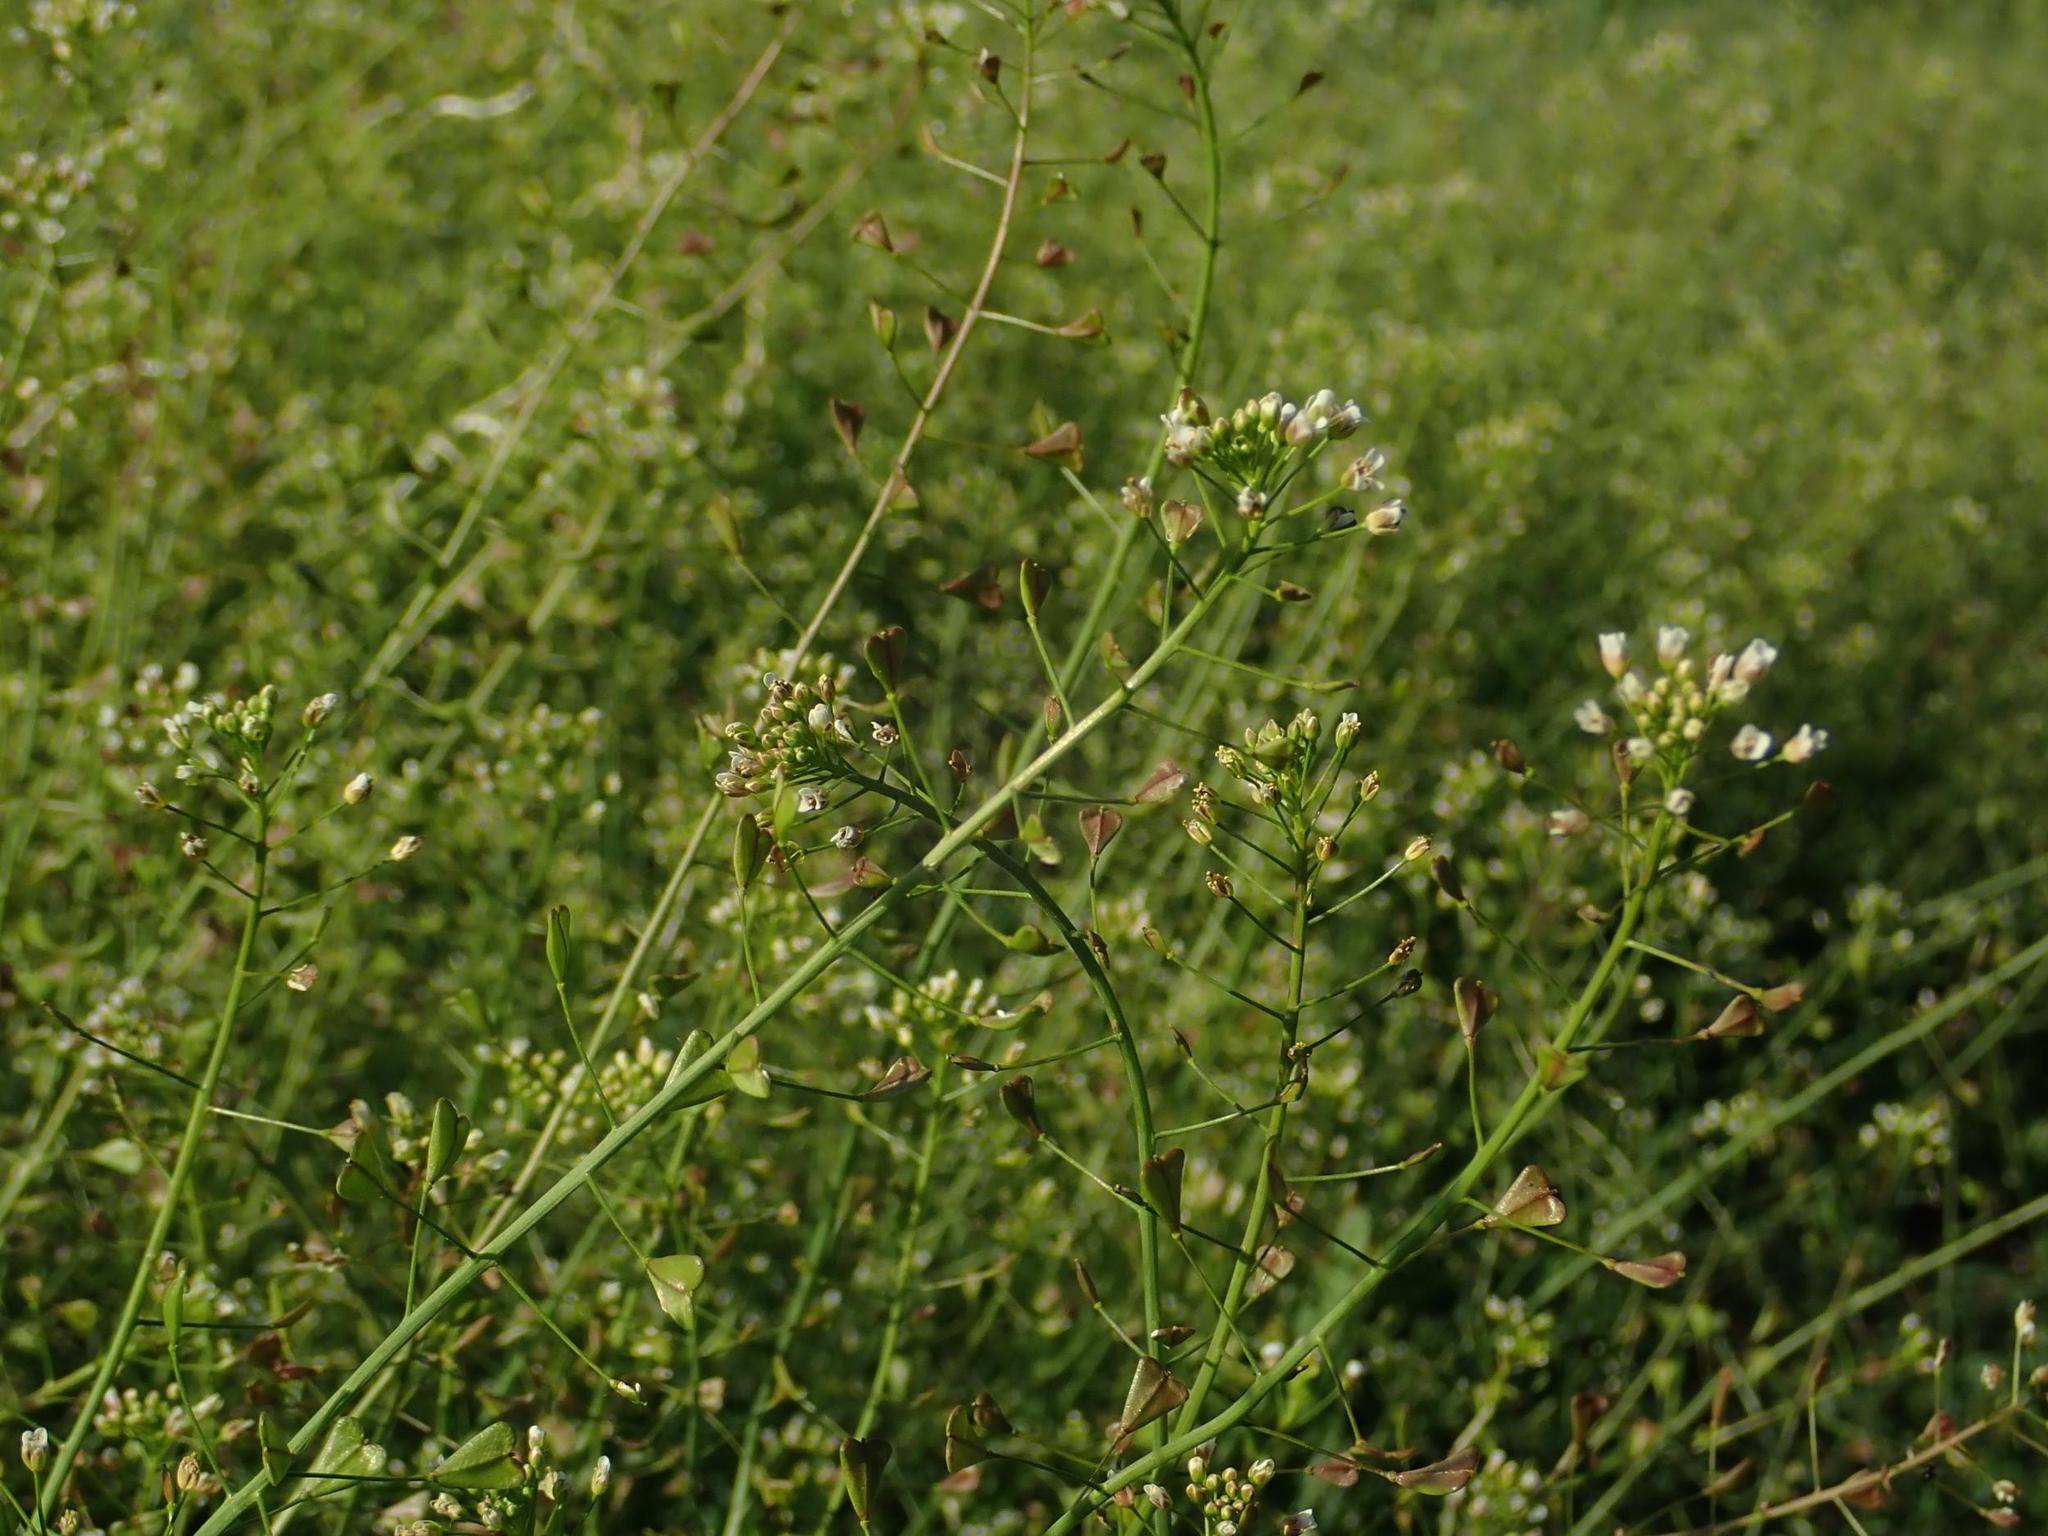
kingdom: Plantae
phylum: Tracheophyta
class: Magnoliopsida
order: Brassicales
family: Brassicaceae
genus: Capsella
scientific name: Capsella bursa-pastoris
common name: Shepherd's purse
